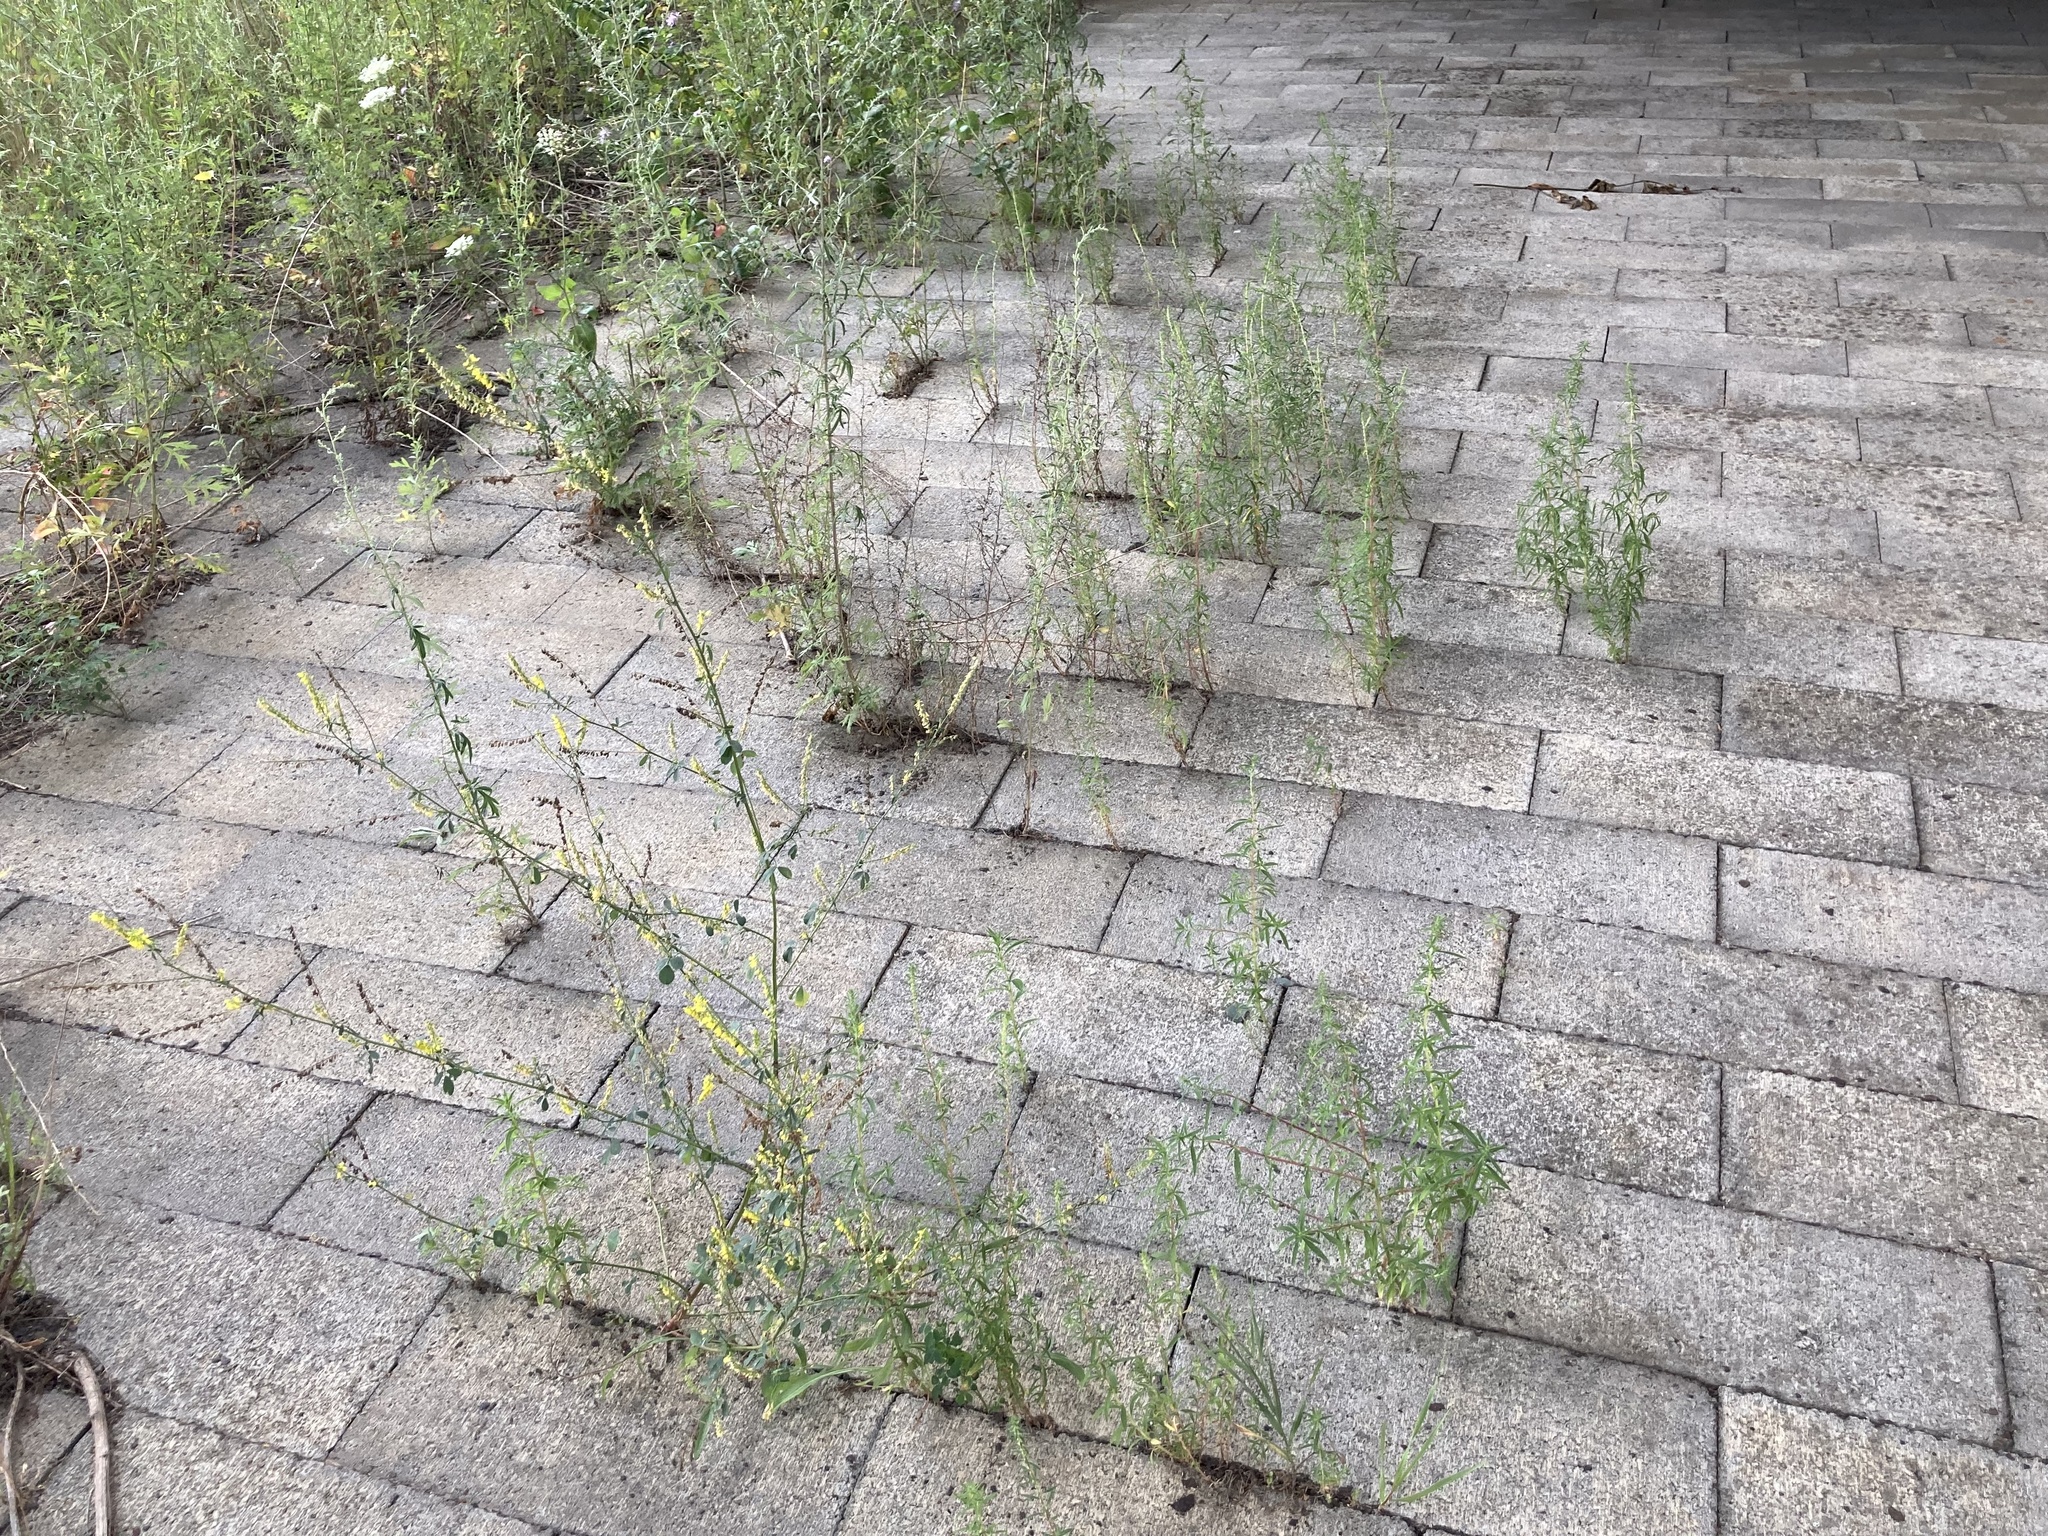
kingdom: Plantae
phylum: Tracheophyta
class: Magnoliopsida
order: Fabales
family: Fabaceae
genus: Melilotus
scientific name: Melilotus officinalis
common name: Sweetclover
